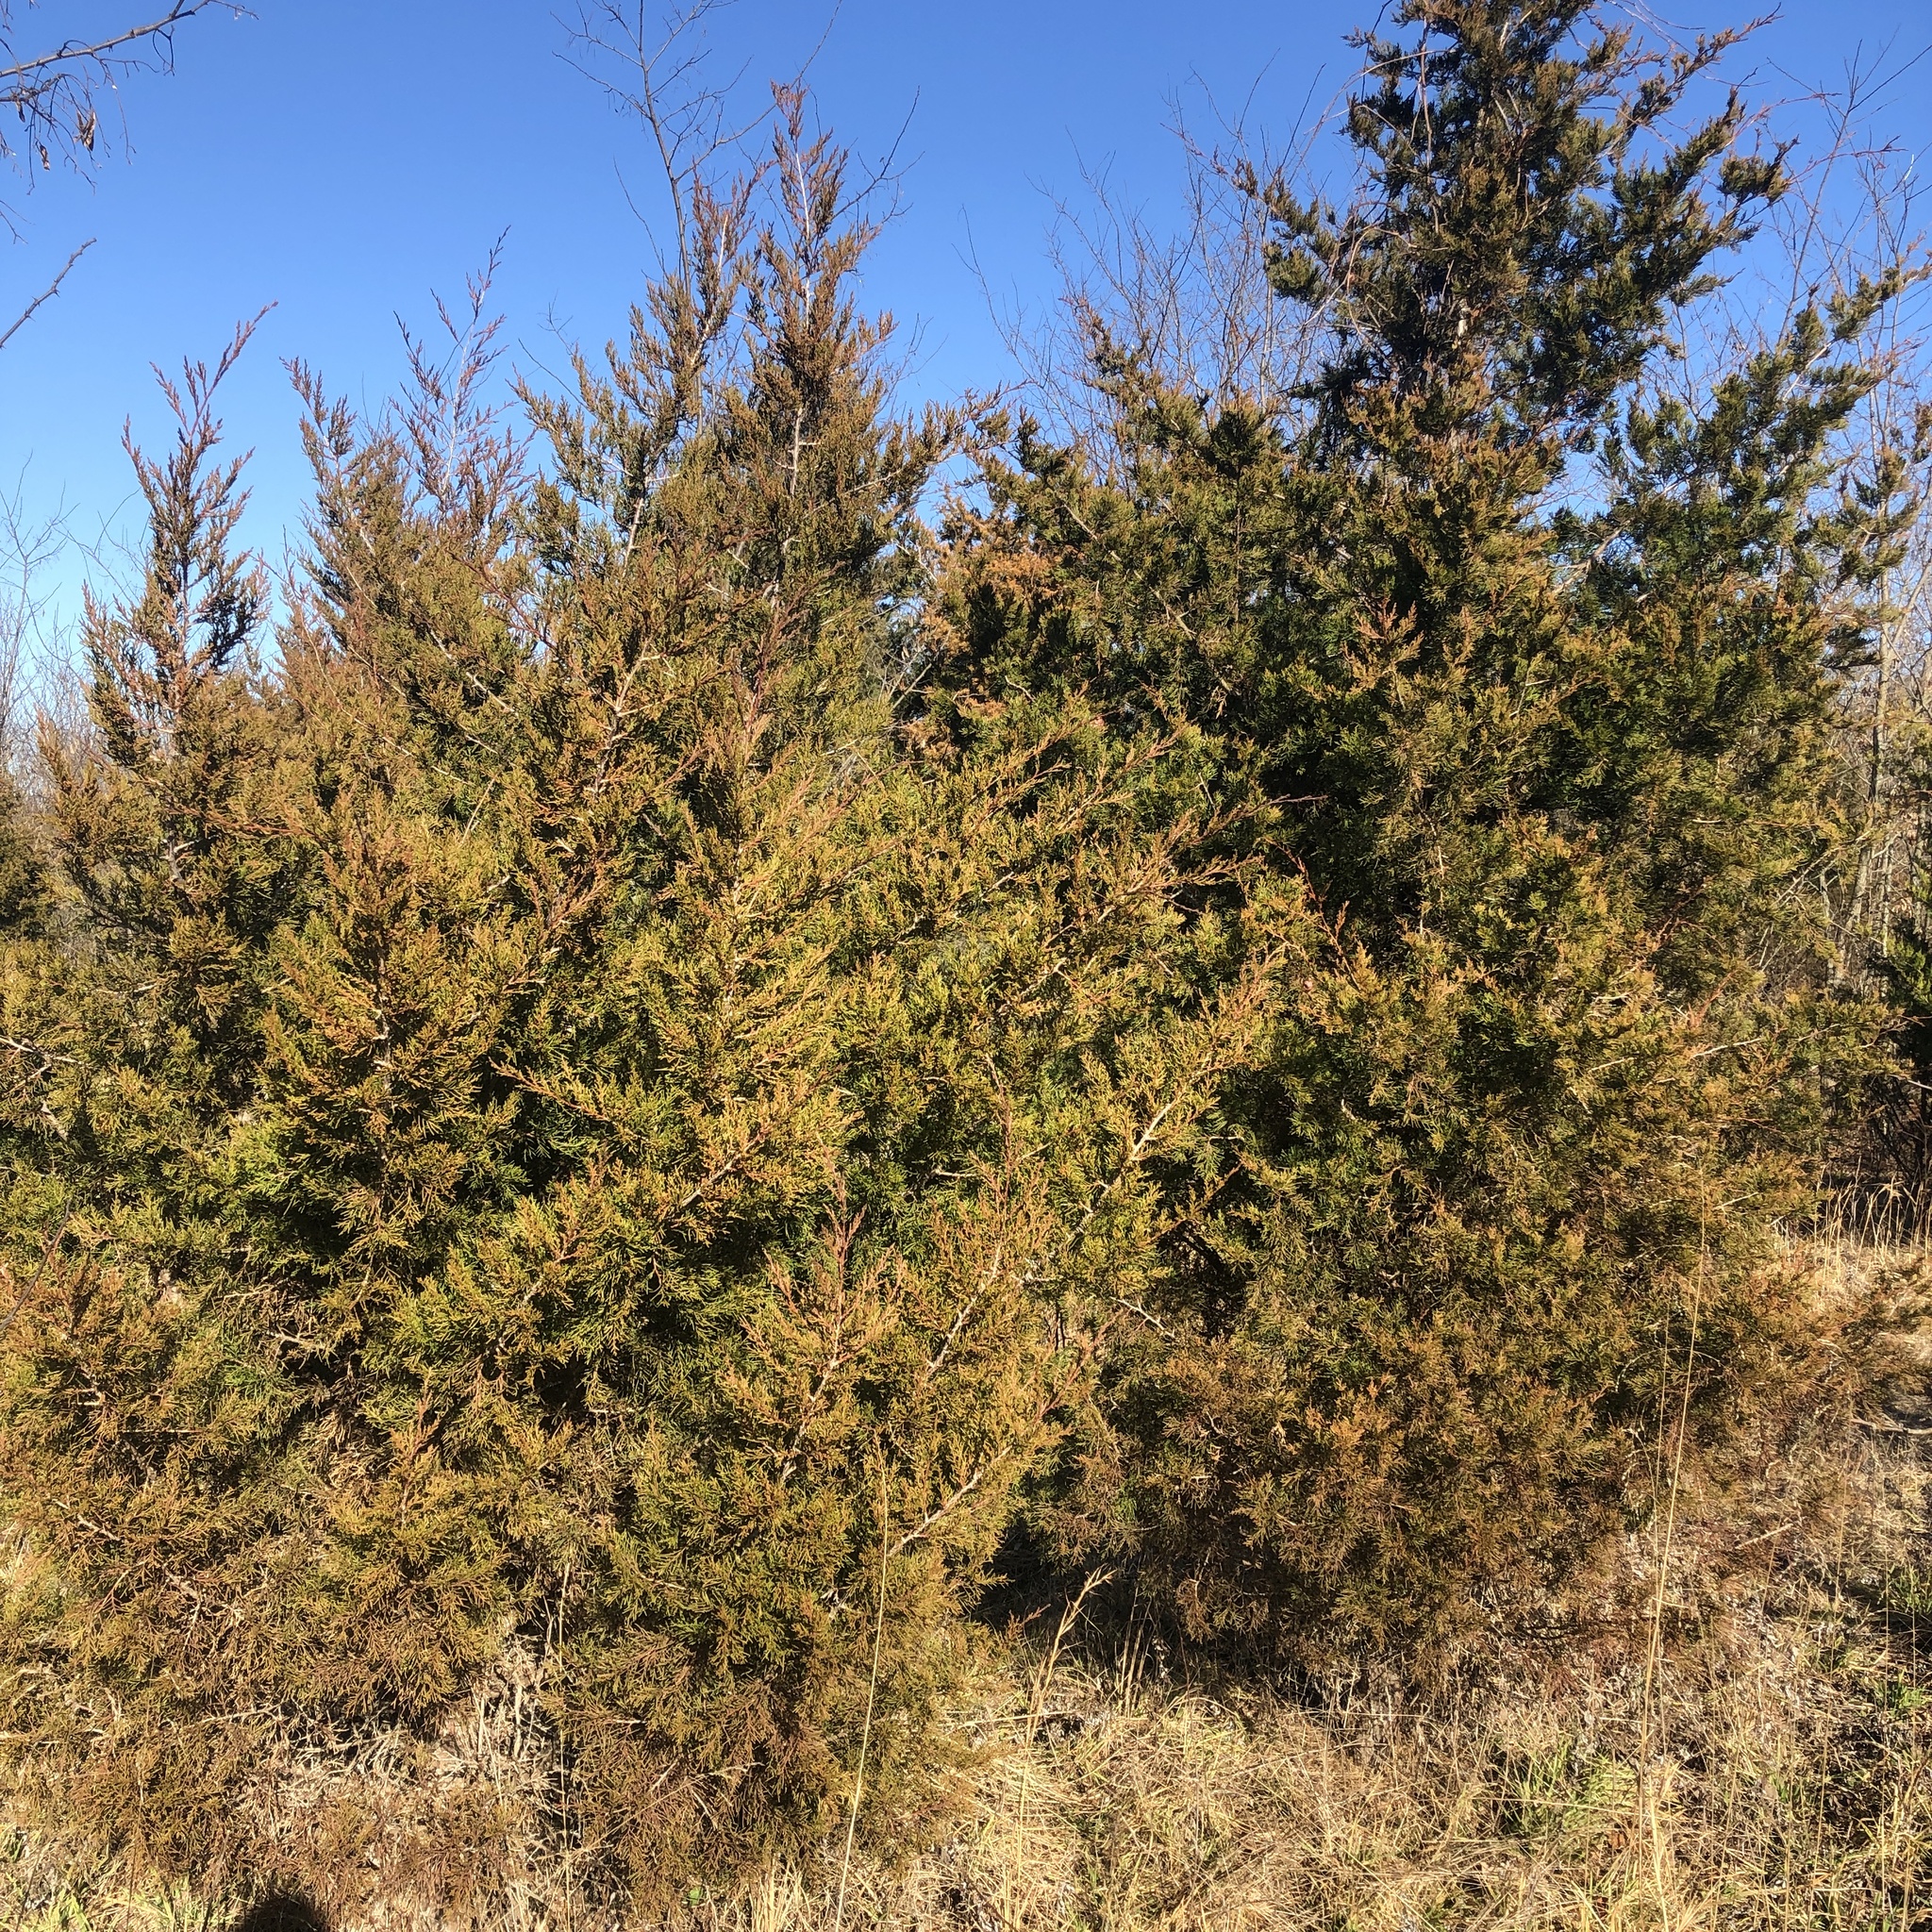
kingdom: Plantae
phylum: Tracheophyta
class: Pinopsida
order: Pinales
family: Cupressaceae
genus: Juniperus
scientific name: Juniperus virginiana
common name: Red juniper
